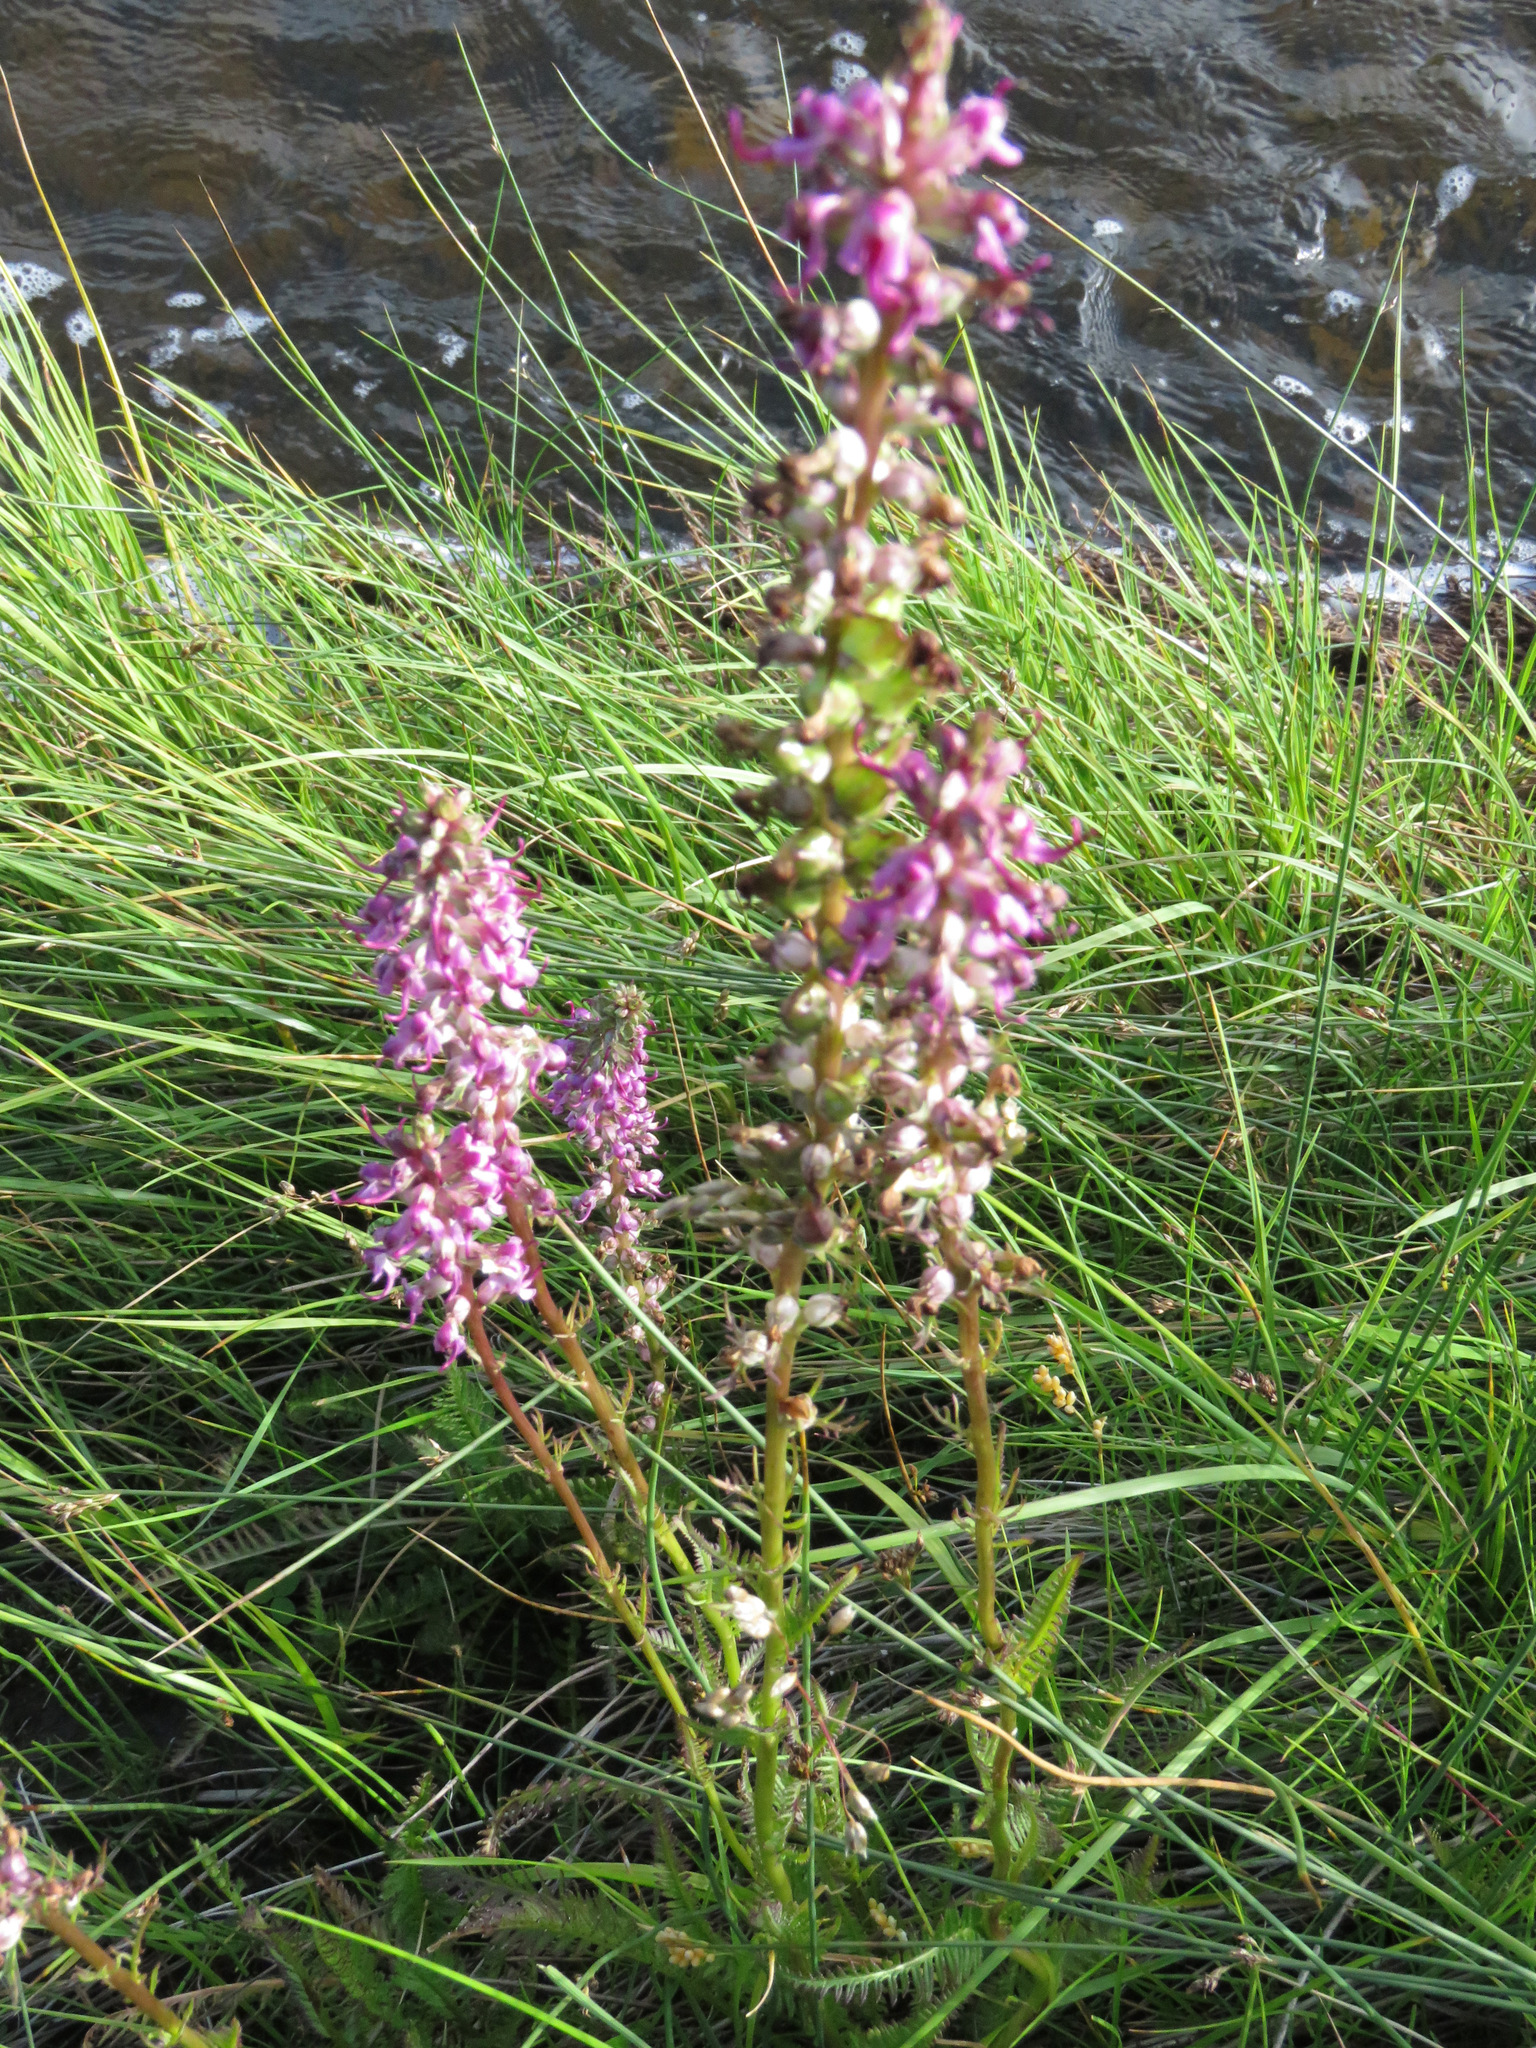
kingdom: Plantae
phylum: Tracheophyta
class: Magnoliopsida
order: Lamiales
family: Orobanchaceae
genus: Pedicularis
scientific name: Pedicularis groenlandica
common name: Elephant's-head
